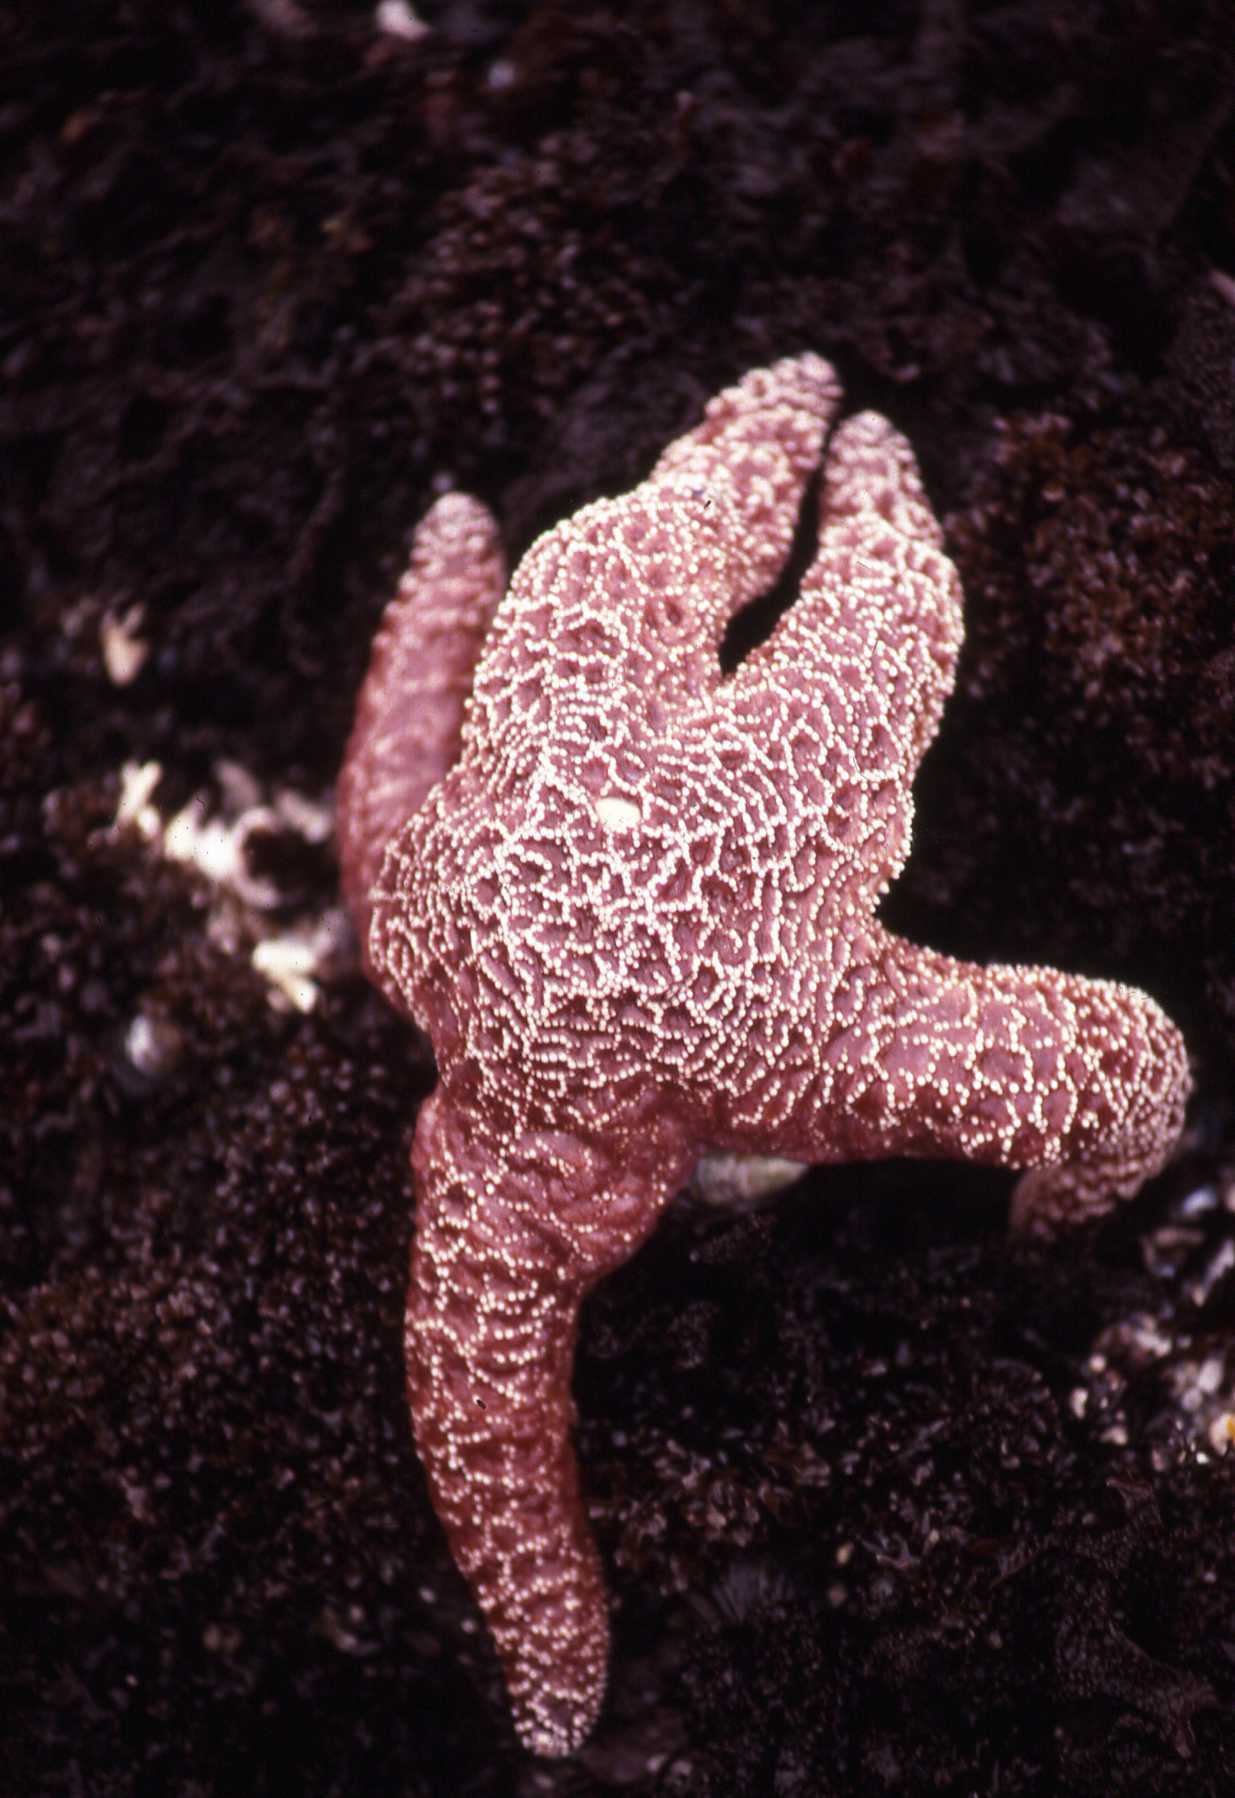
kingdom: Animalia
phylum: Echinodermata
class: Asteroidea
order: Forcipulatida
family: Asteriidae
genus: Pisaster
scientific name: Pisaster ochraceus
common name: Ochre stars
